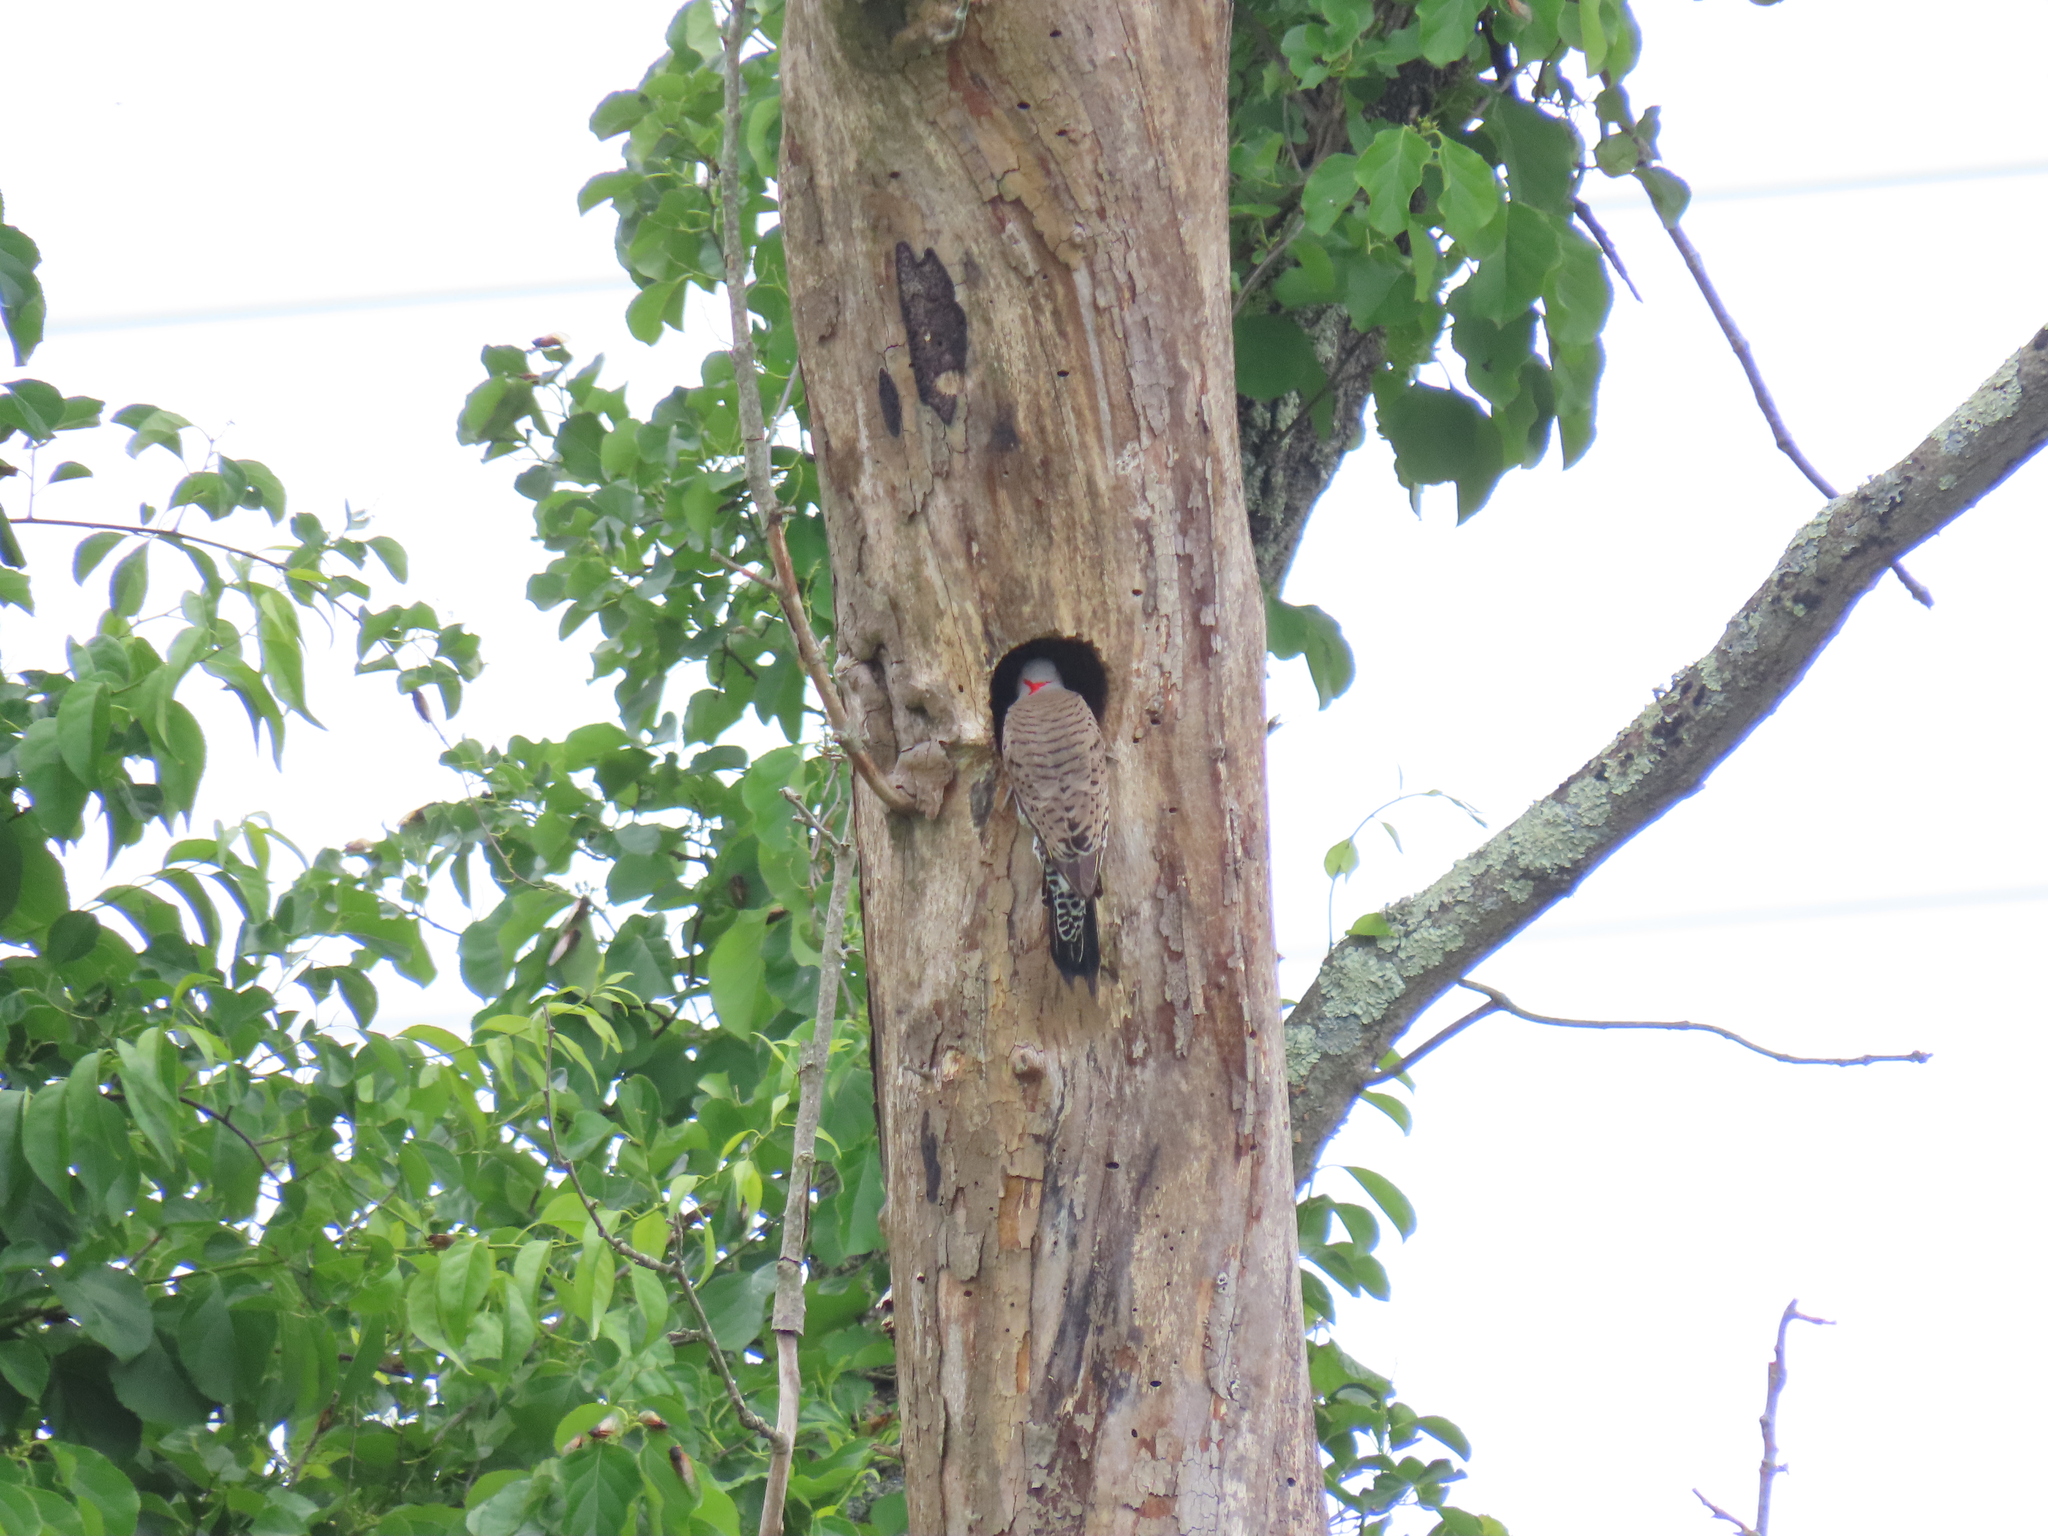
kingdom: Animalia
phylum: Chordata
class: Aves
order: Piciformes
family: Picidae
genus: Colaptes
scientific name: Colaptes auratus
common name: Northern flicker
